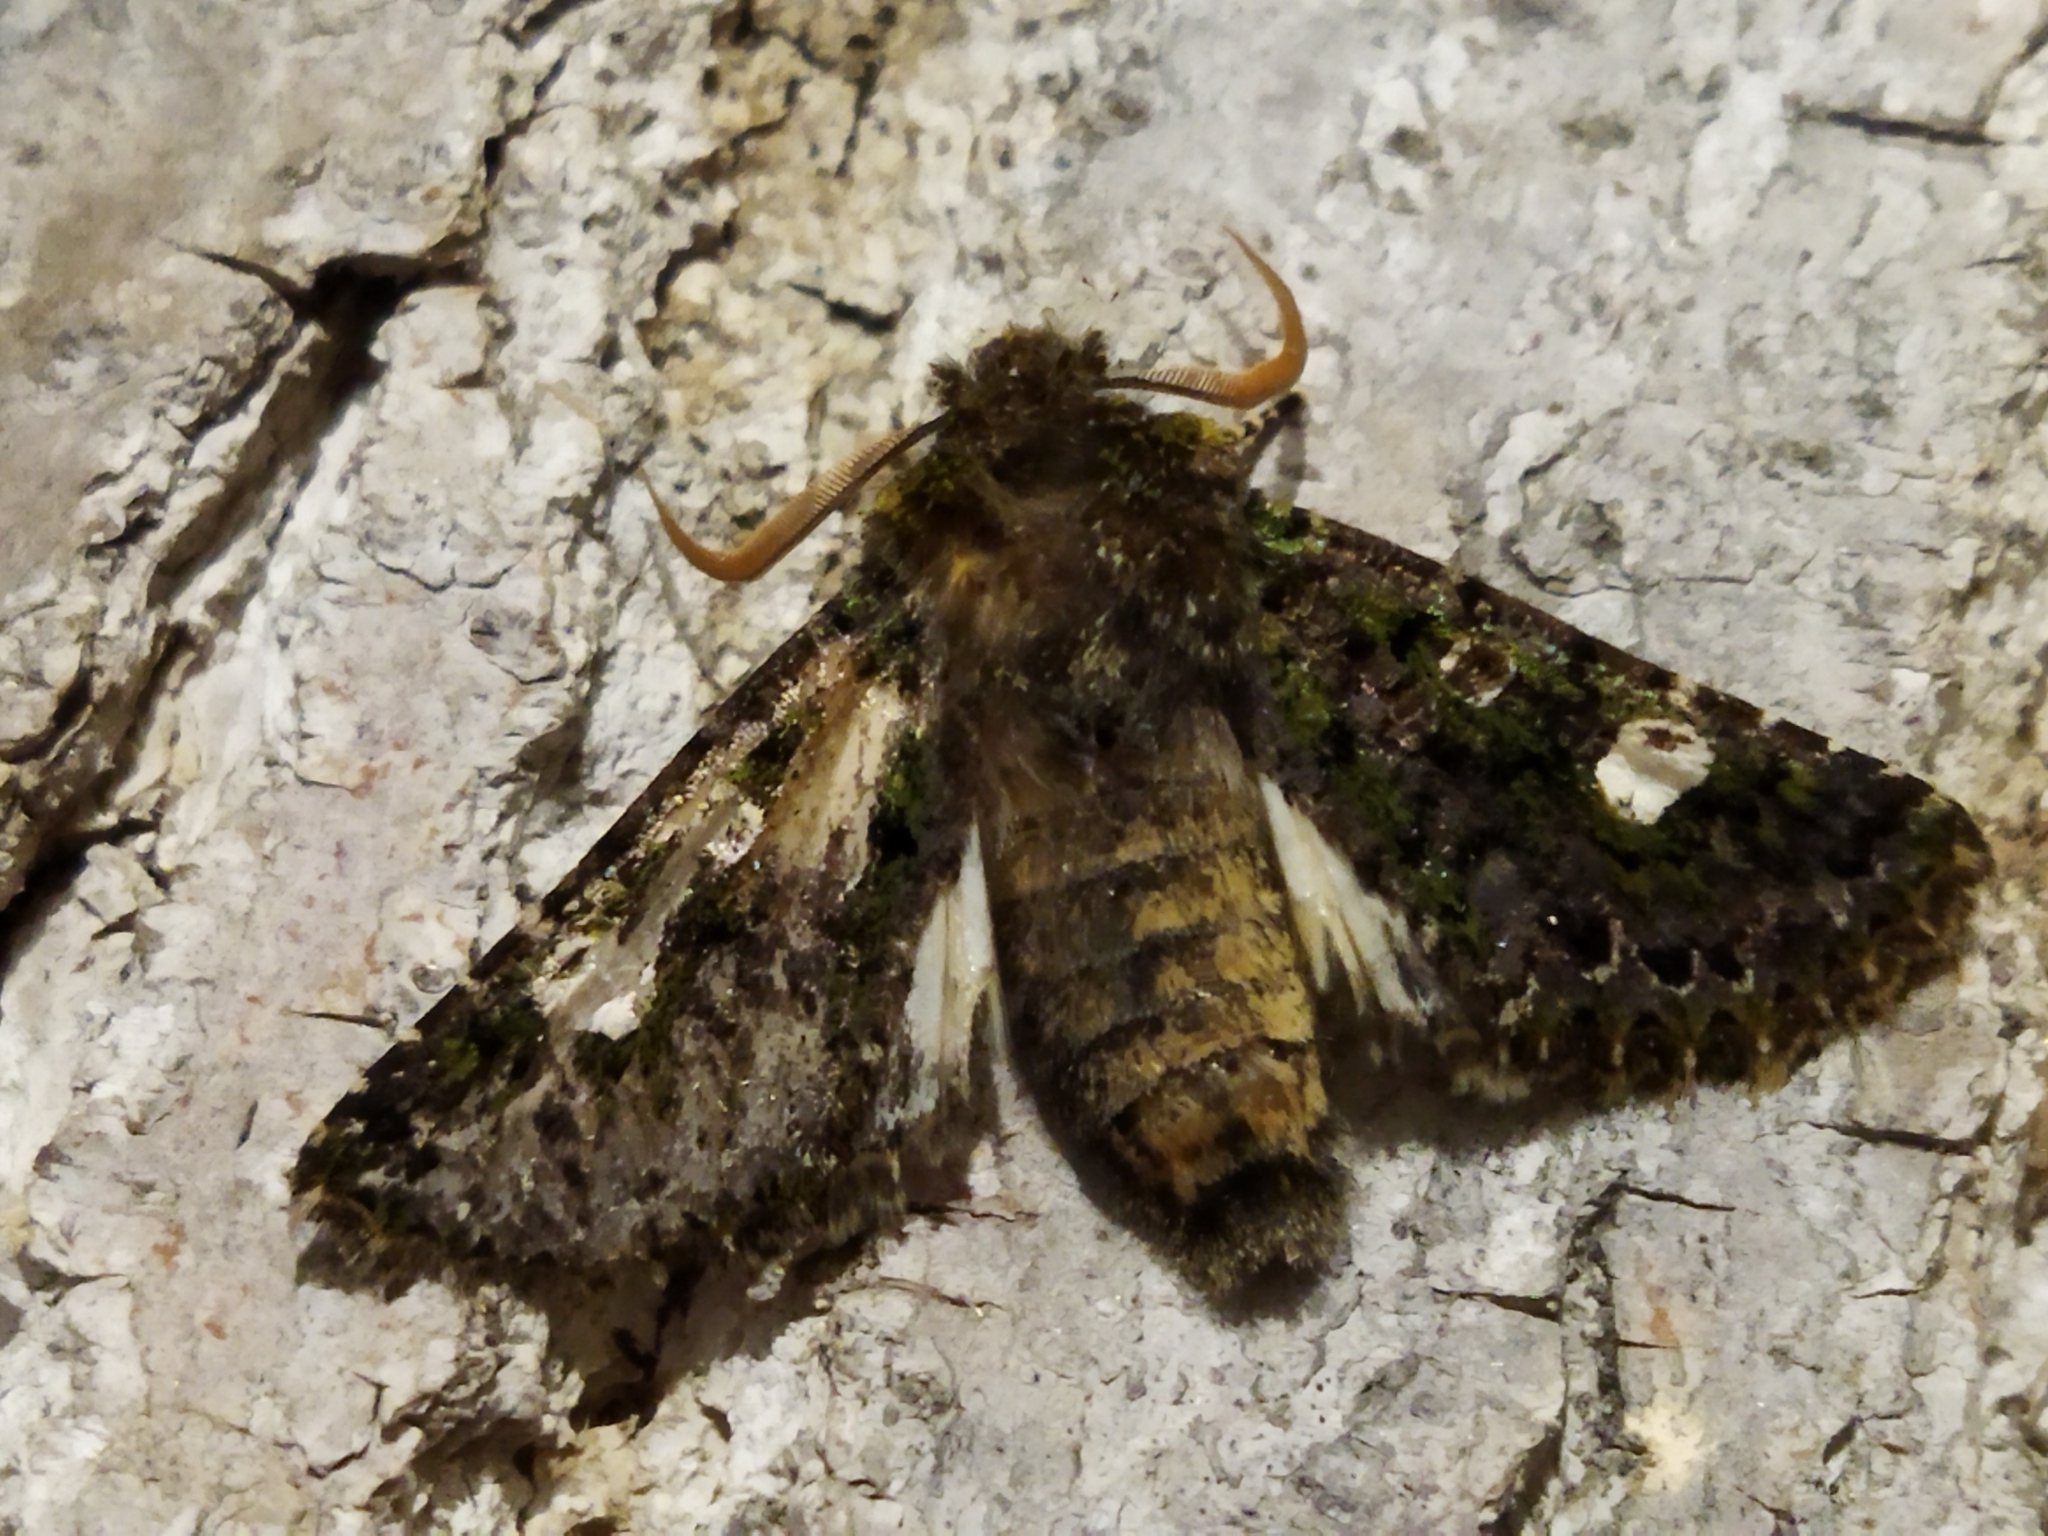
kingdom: Animalia
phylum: Arthropoda
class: Insecta
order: Lepidoptera
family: Noctuidae
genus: Valeria
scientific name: Valeria oleagina
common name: Green-brindled dot
